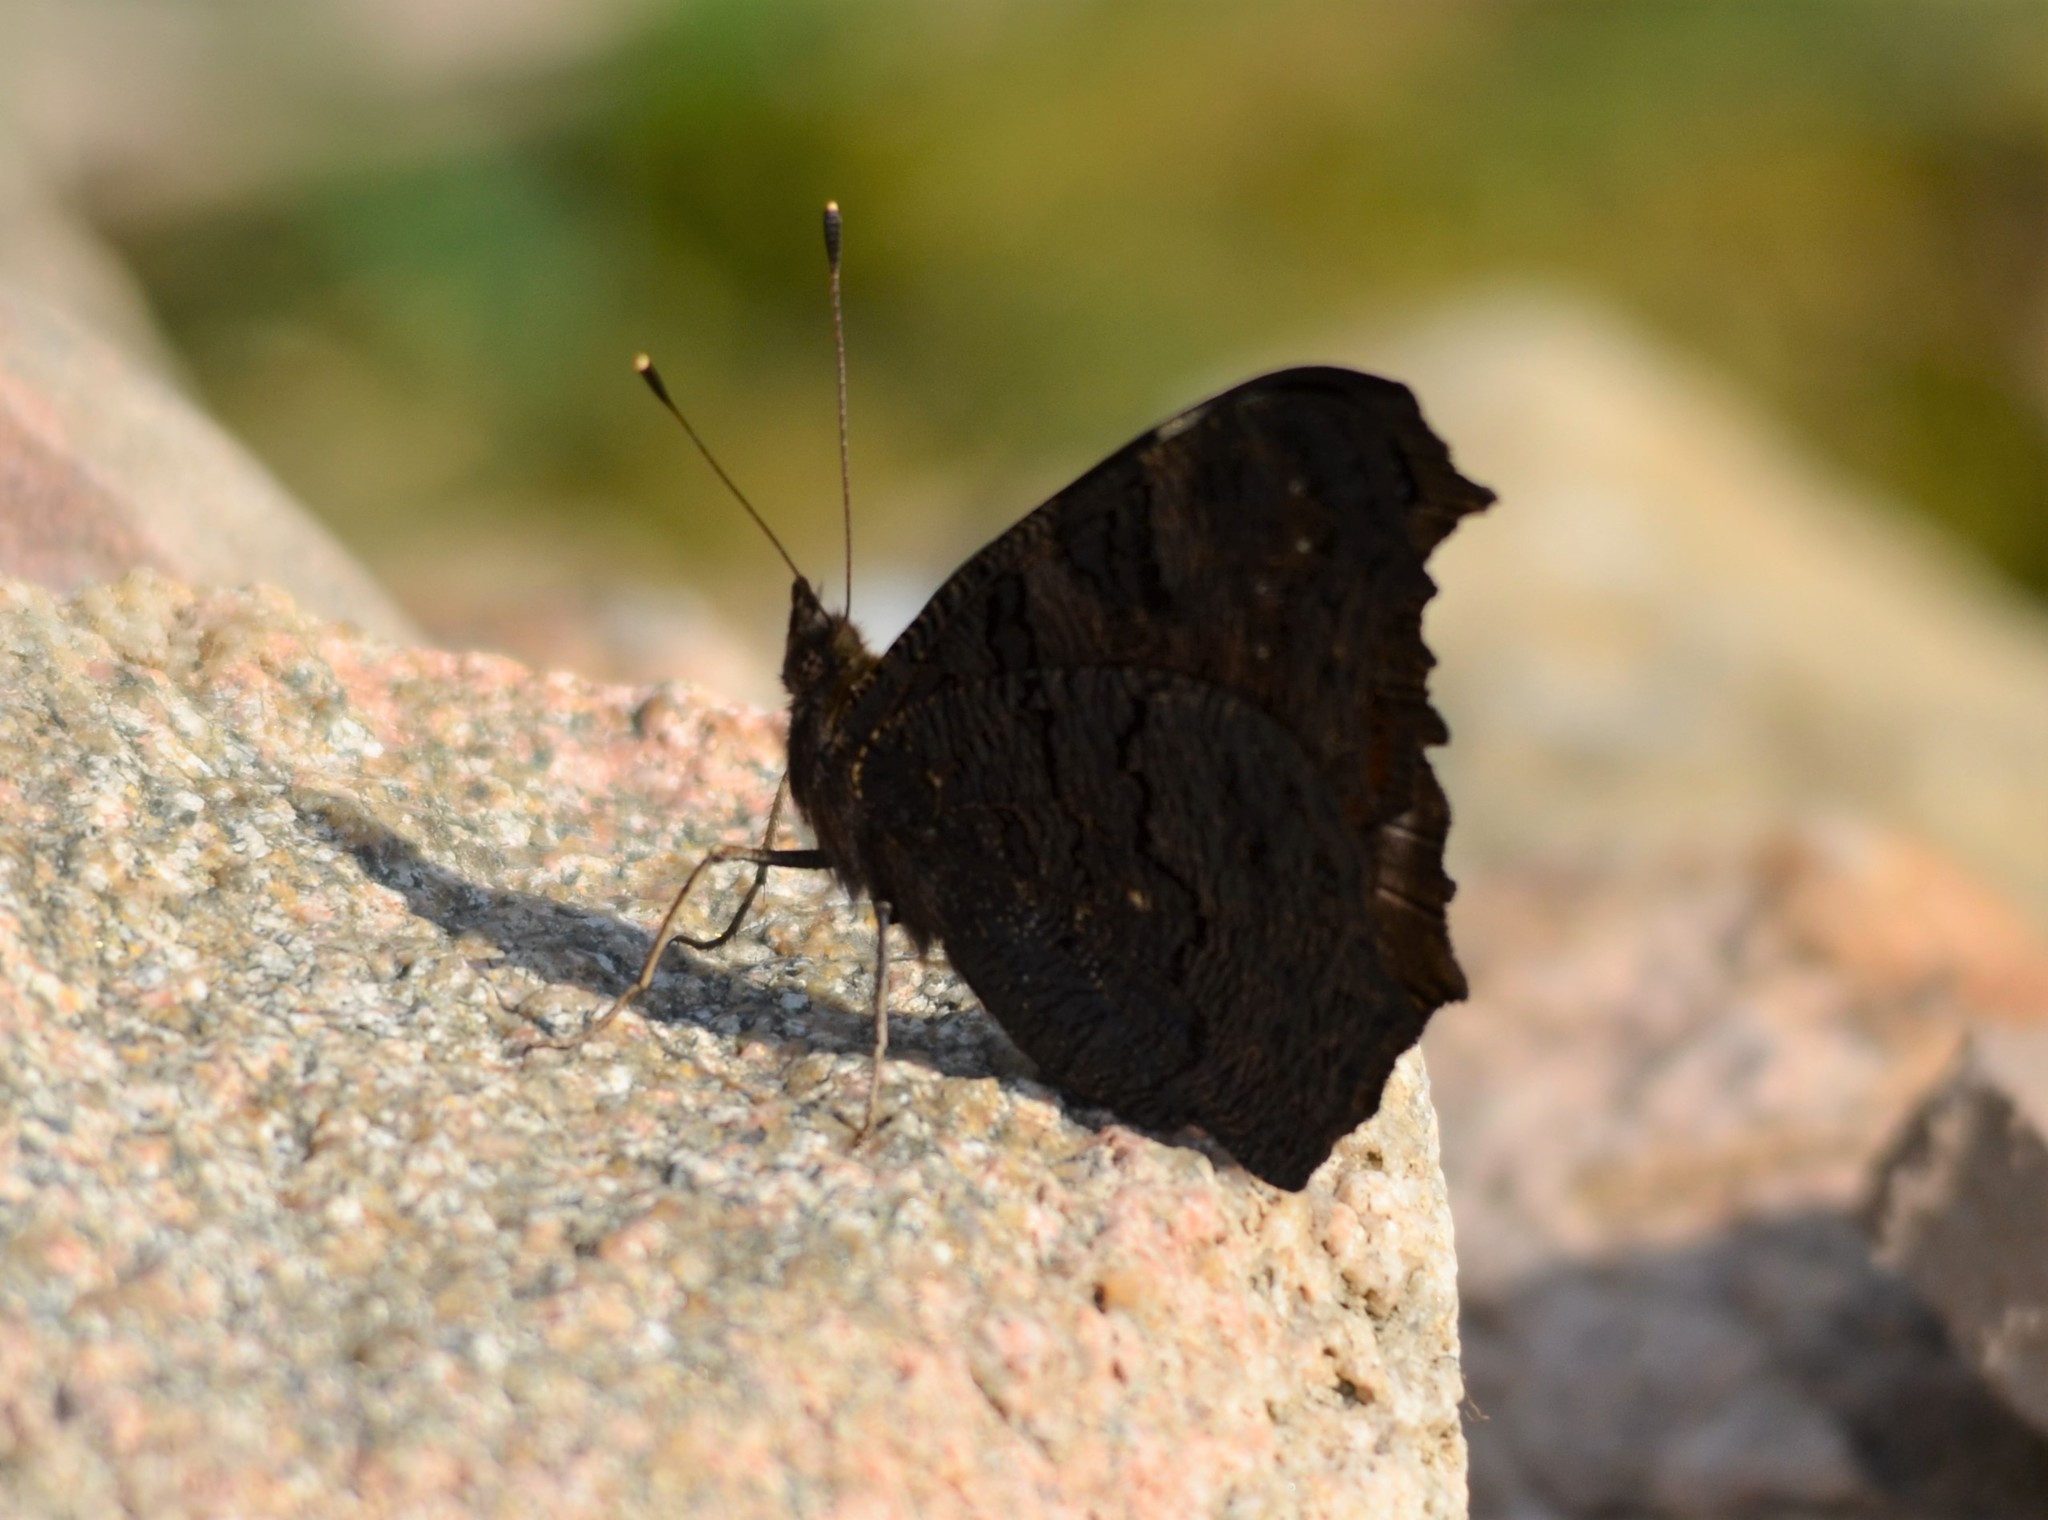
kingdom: Animalia
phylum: Arthropoda
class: Insecta
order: Lepidoptera
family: Nymphalidae
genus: Aglais
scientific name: Aglais io
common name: Peacock
